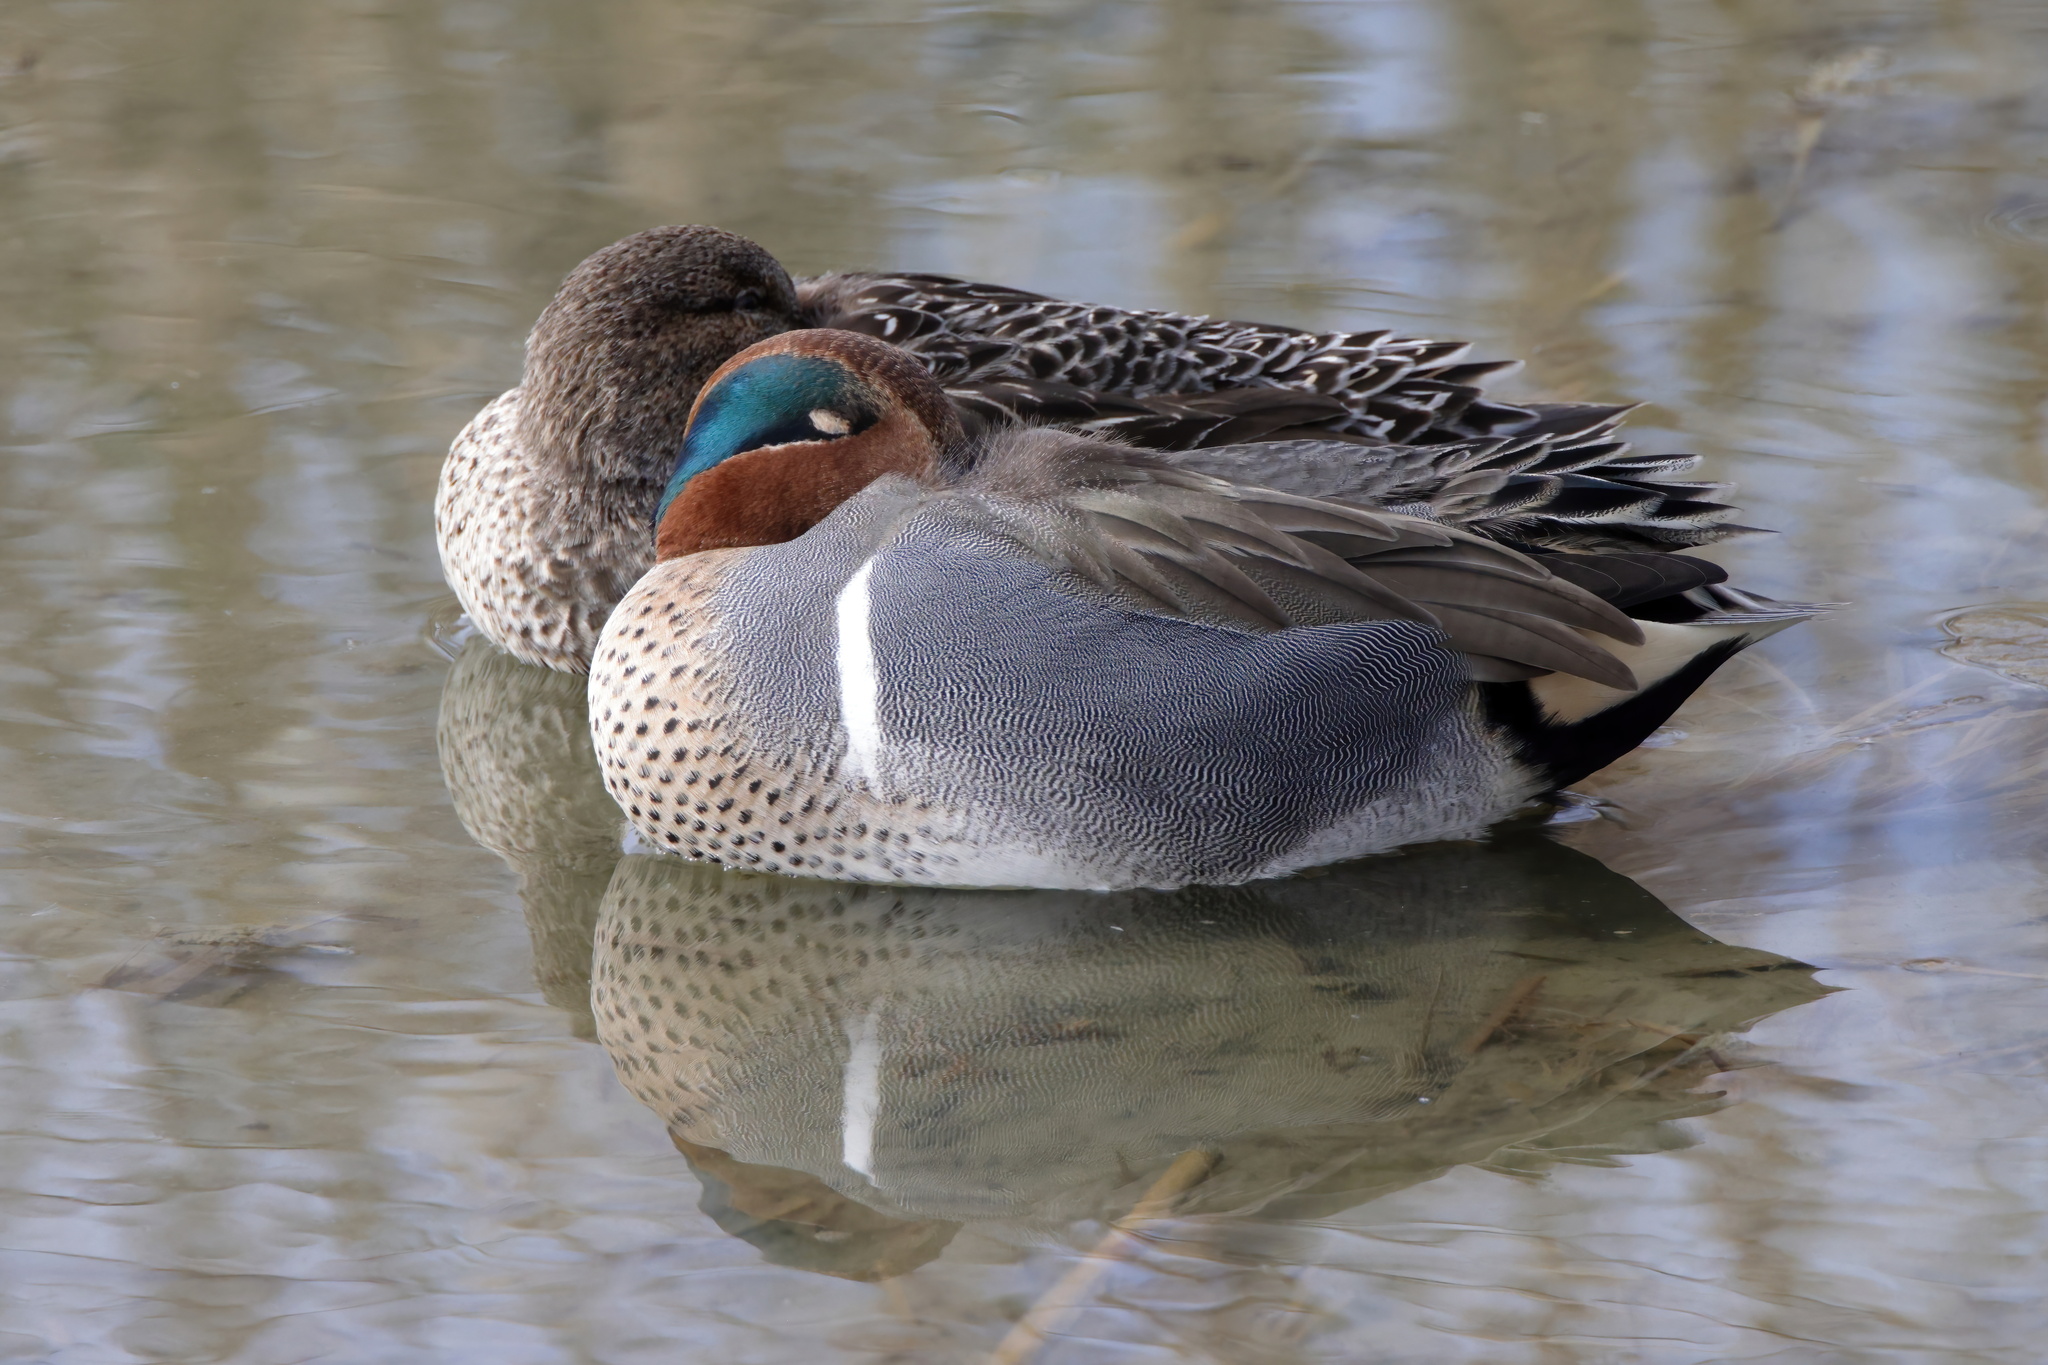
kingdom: Animalia
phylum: Chordata
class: Aves
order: Anseriformes
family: Anatidae
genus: Anas
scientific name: Anas crecca
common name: Eurasian teal
